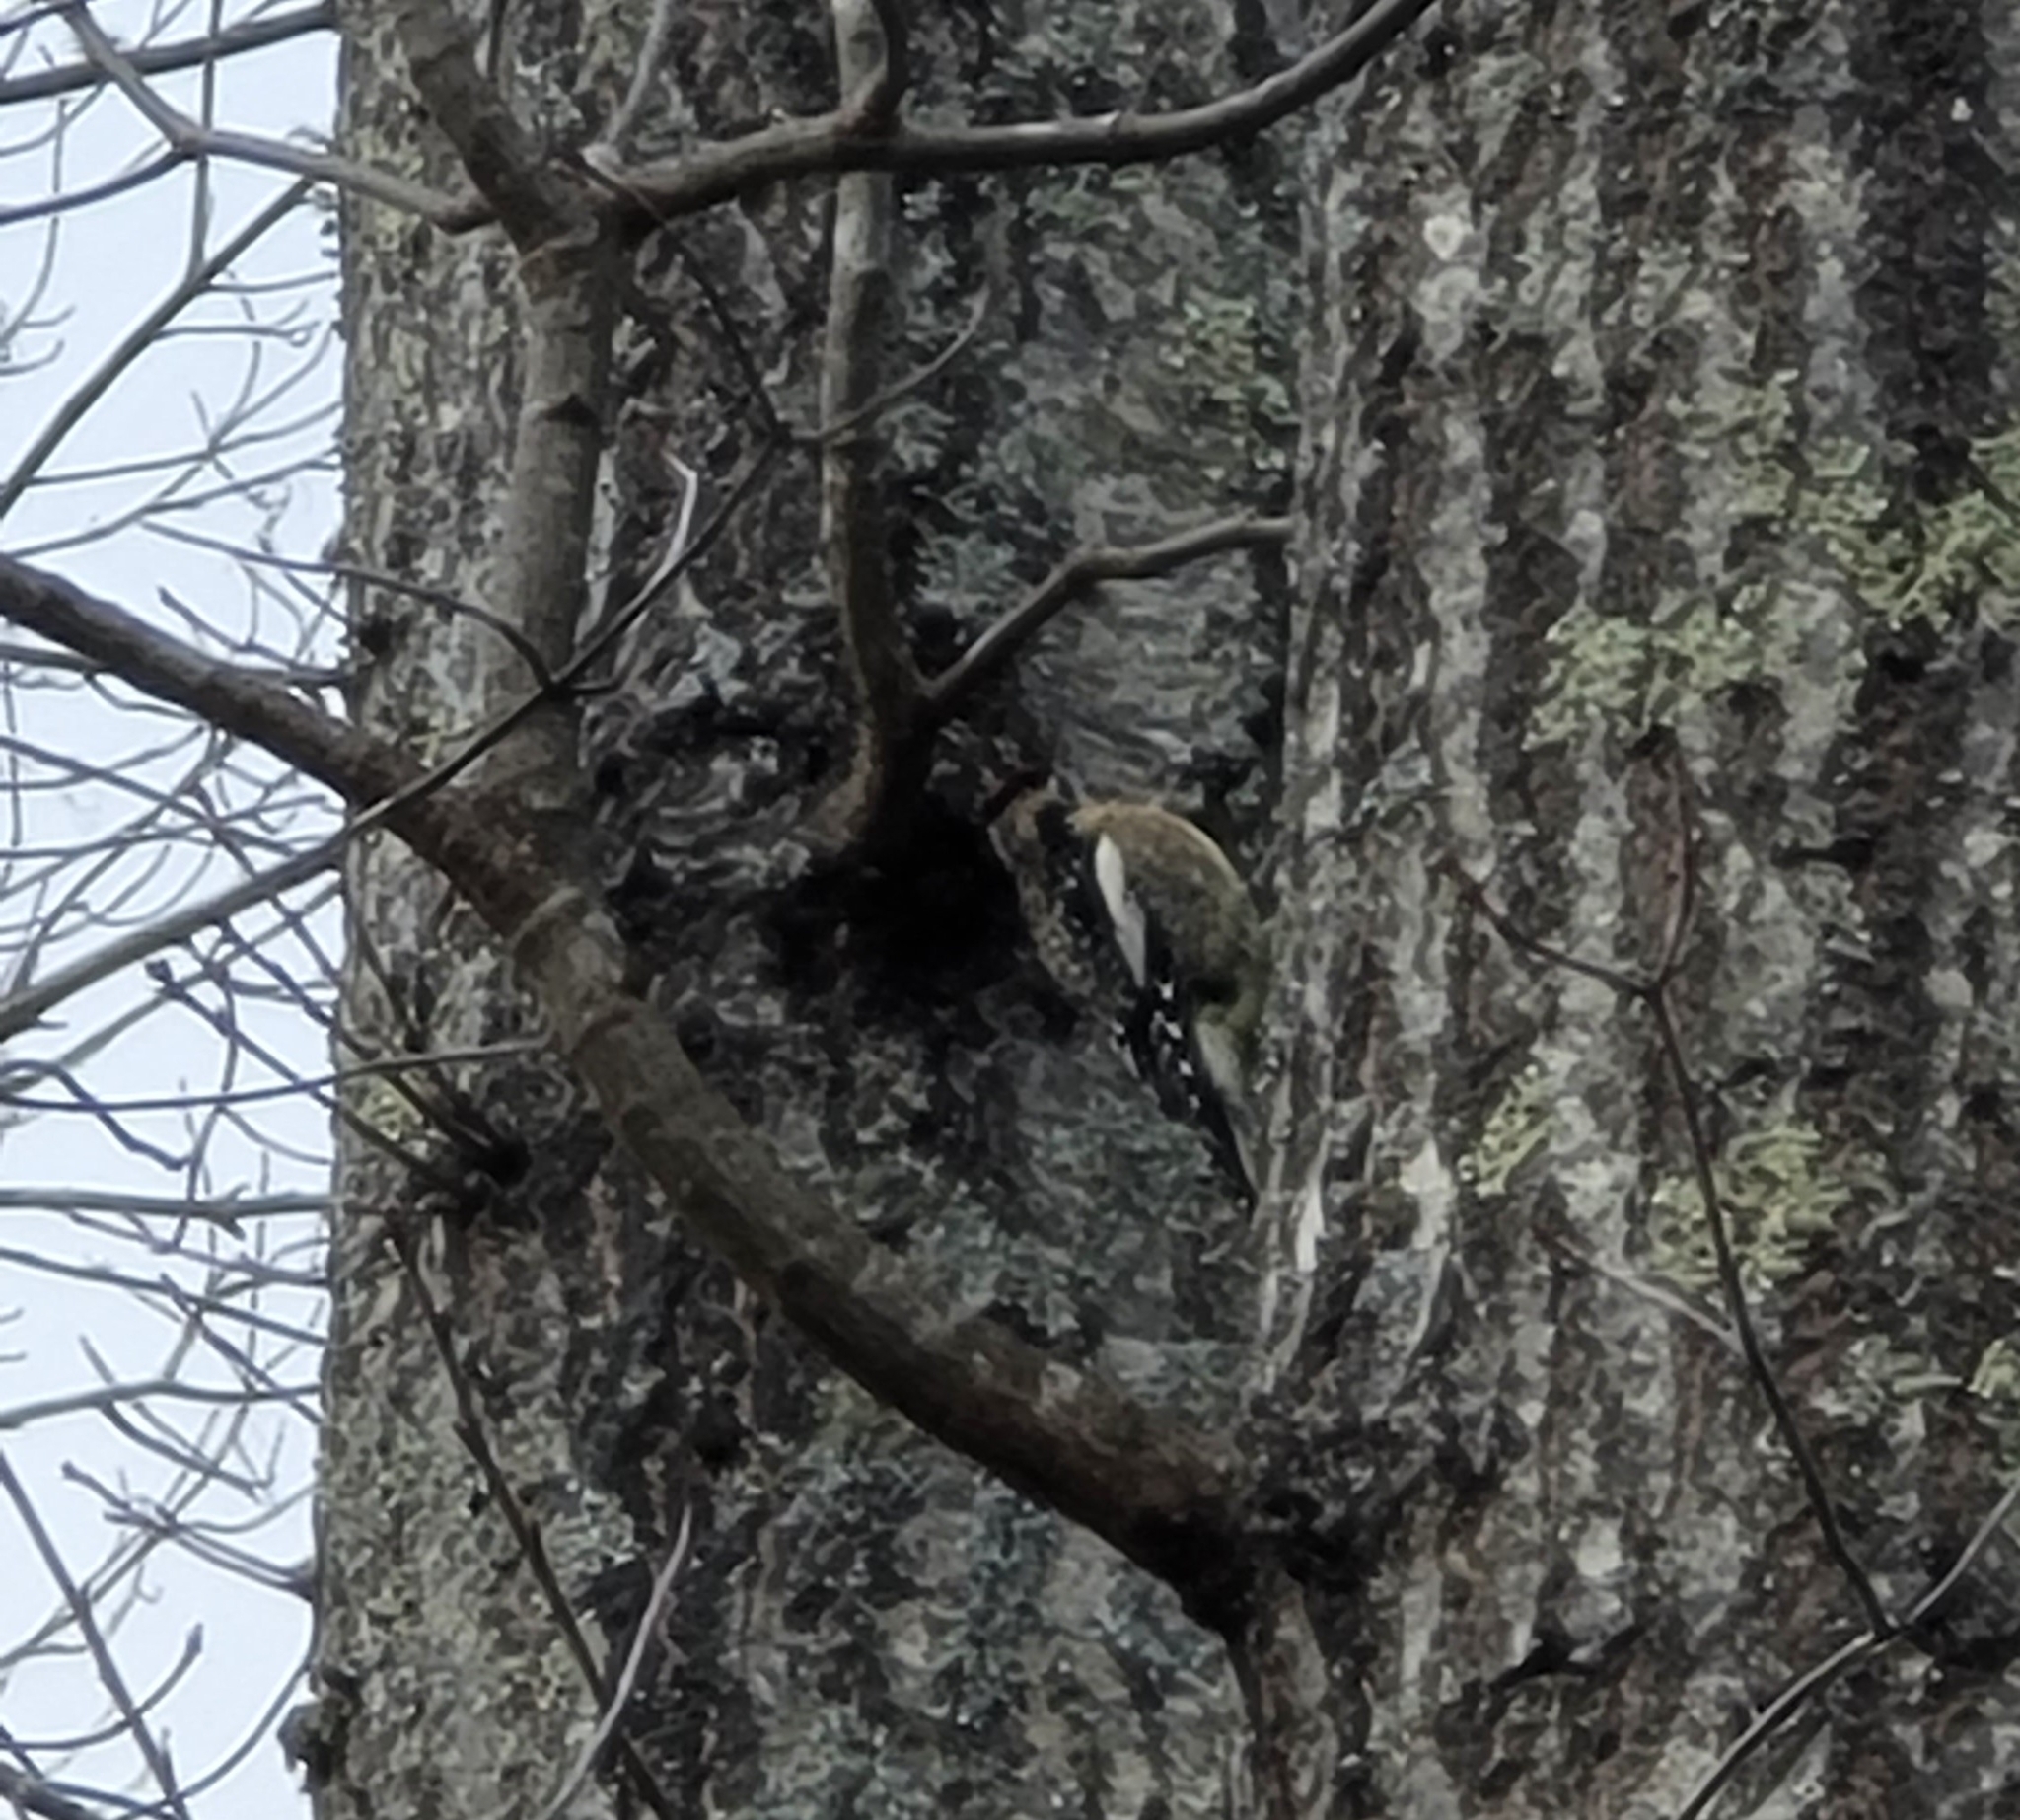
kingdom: Animalia
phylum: Chordata
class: Aves
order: Piciformes
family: Picidae
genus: Sphyrapicus
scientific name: Sphyrapicus varius
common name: Yellow-bellied sapsucker
